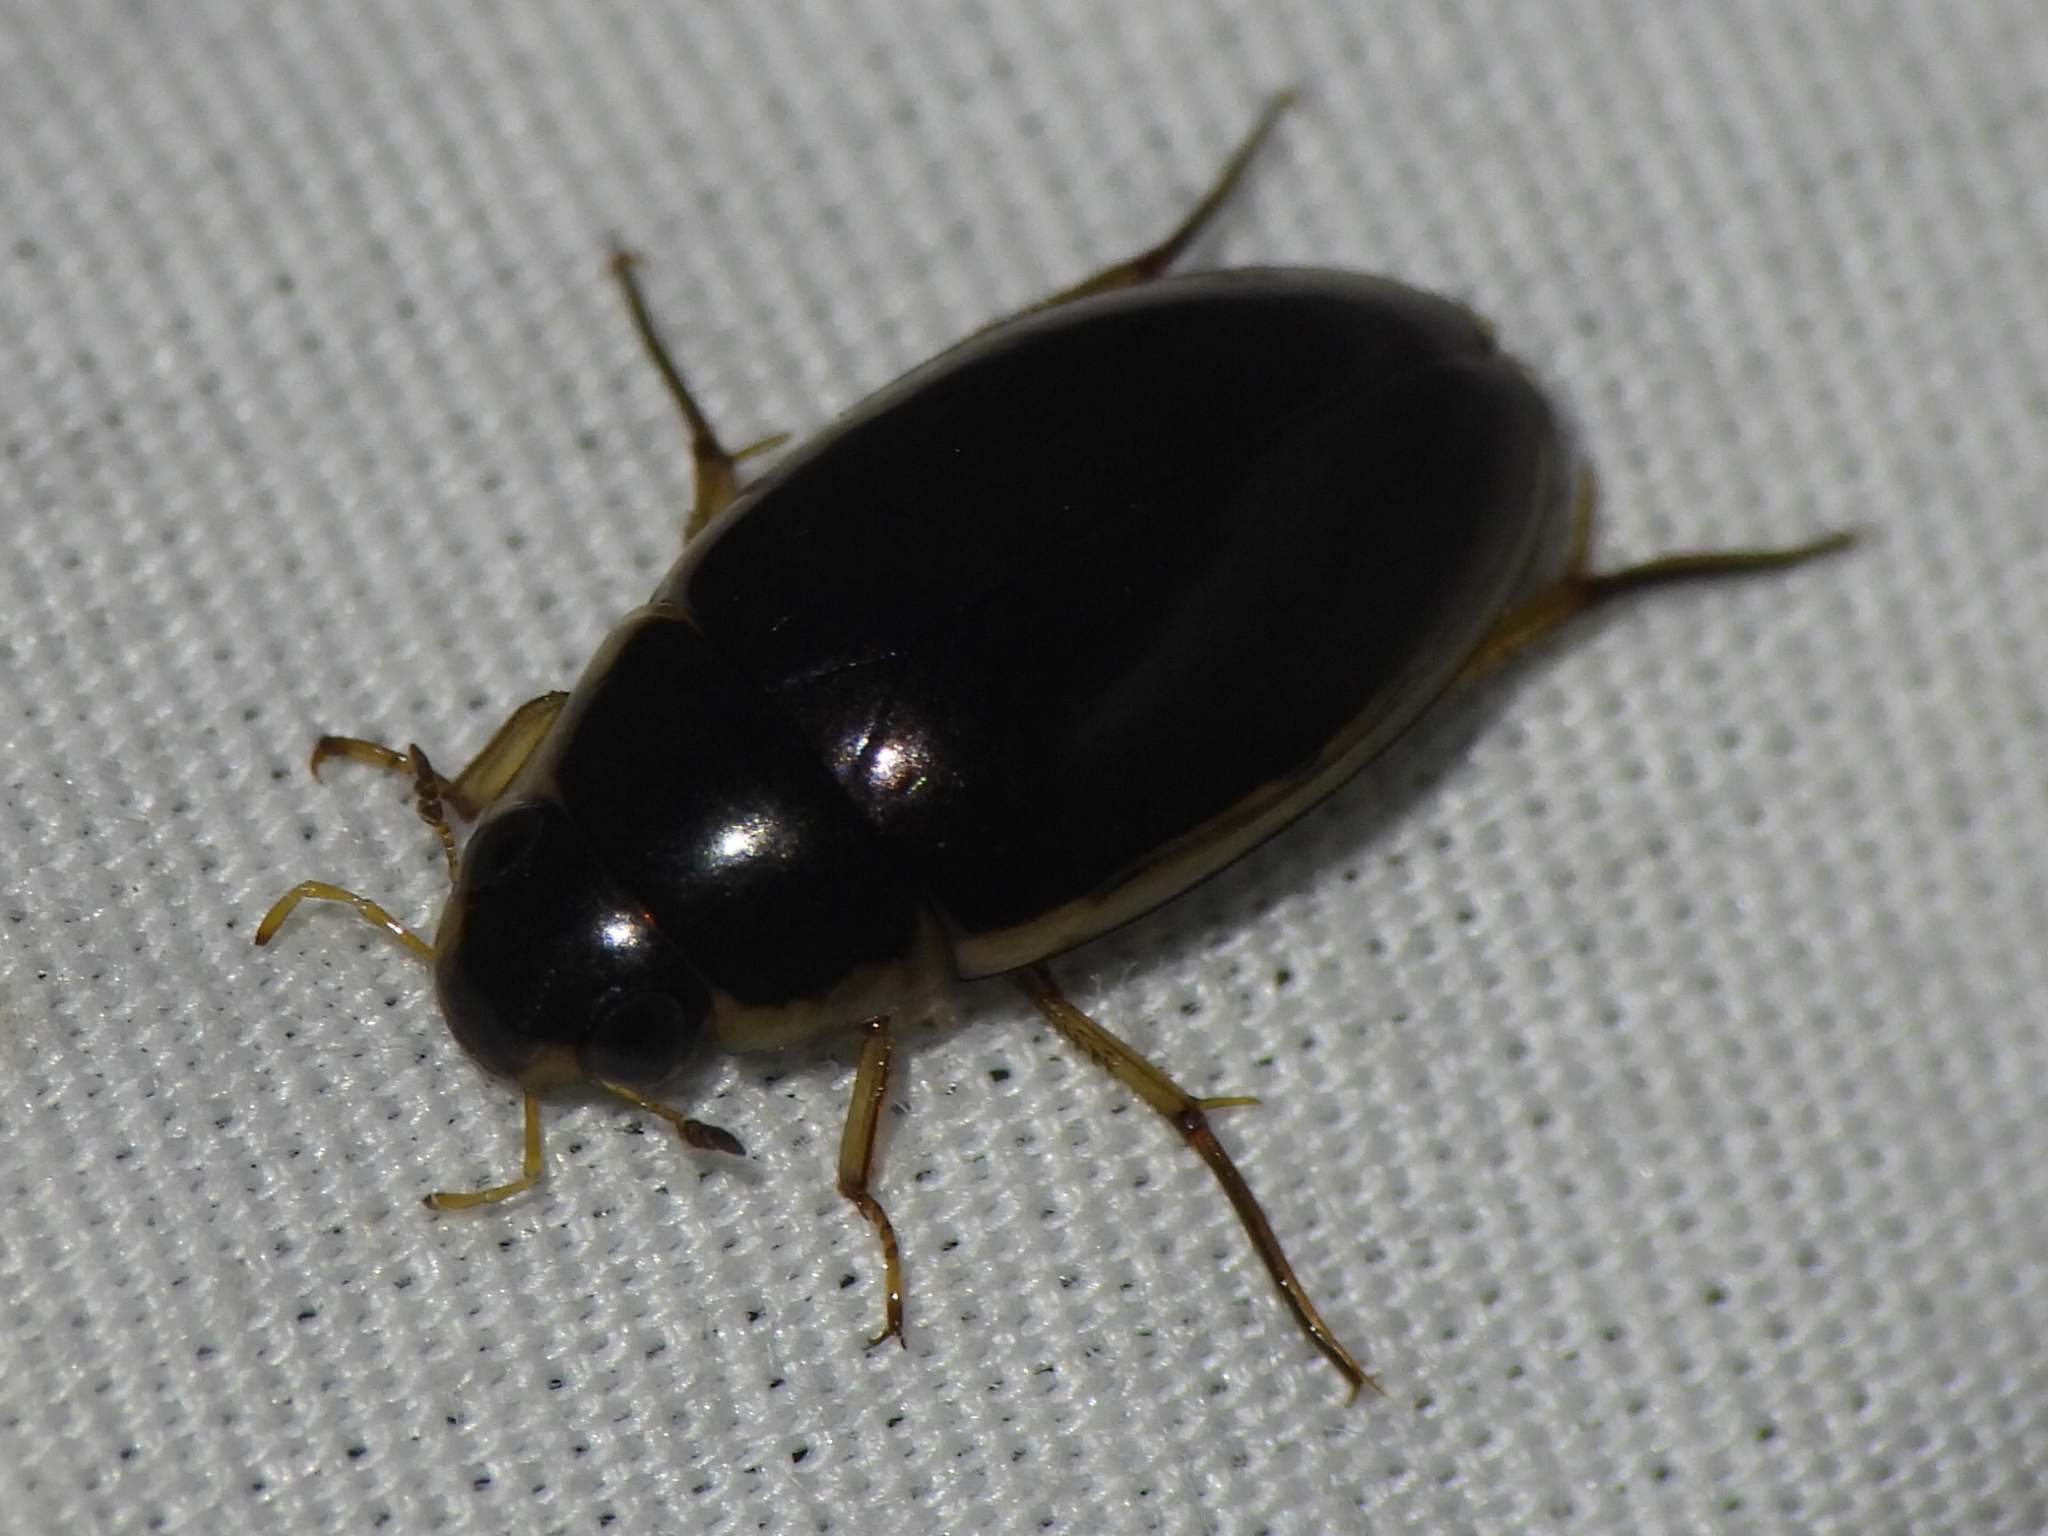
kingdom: Animalia
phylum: Arthropoda
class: Insecta
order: Coleoptera
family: Hydrophilidae
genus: Tropisternus
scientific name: Tropisternus lateralis
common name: Lateral-banded water scavenger beetle
